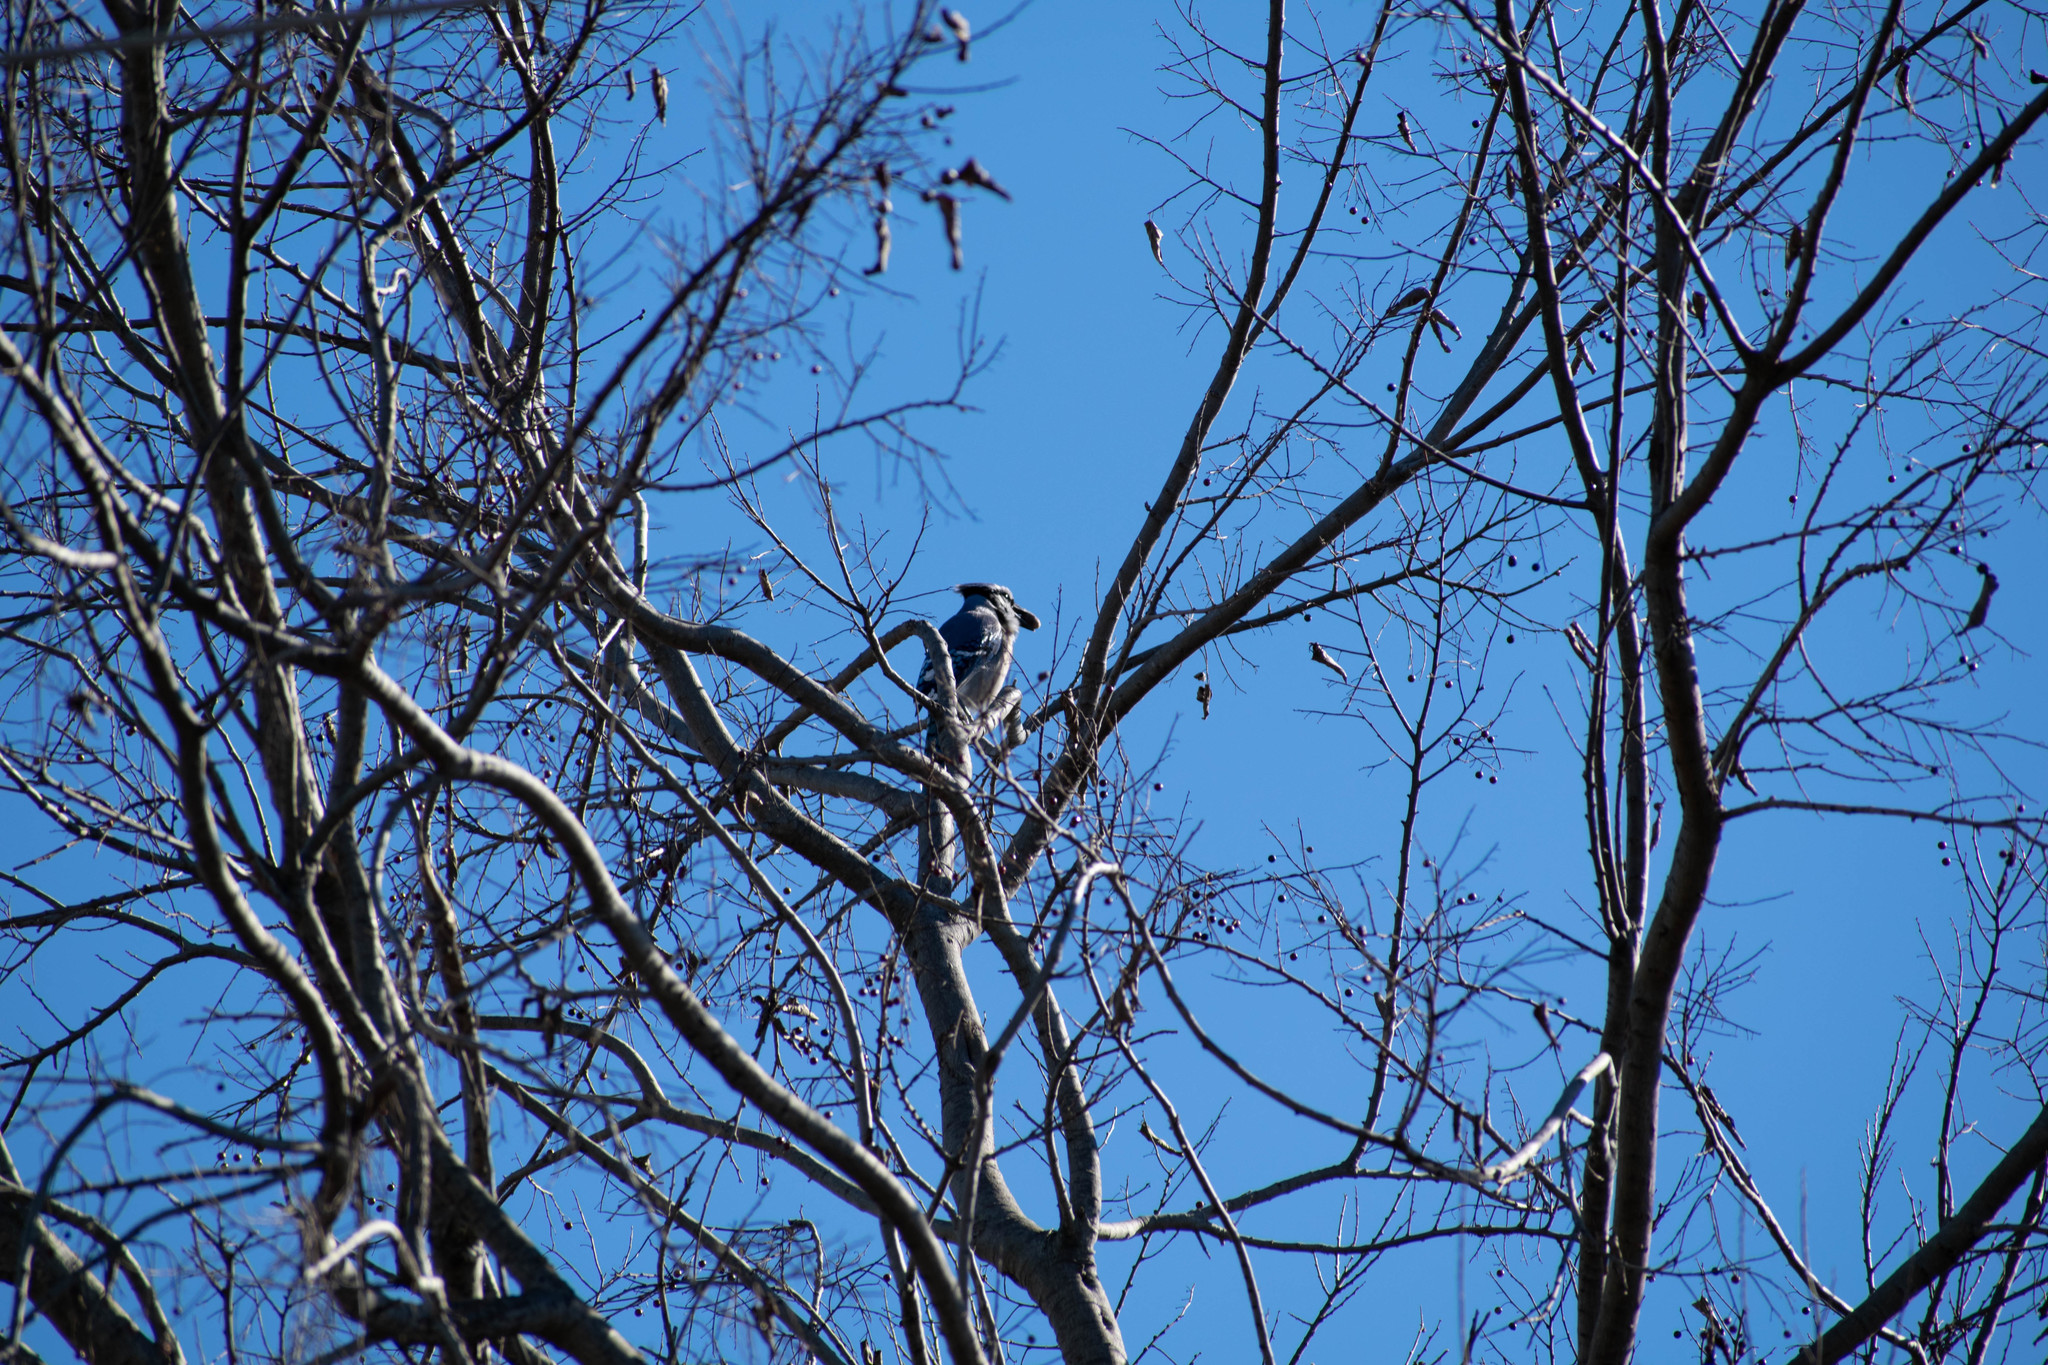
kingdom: Animalia
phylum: Chordata
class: Aves
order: Passeriformes
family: Corvidae
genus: Cyanocitta
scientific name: Cyanocitta cristata
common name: Blue jay
